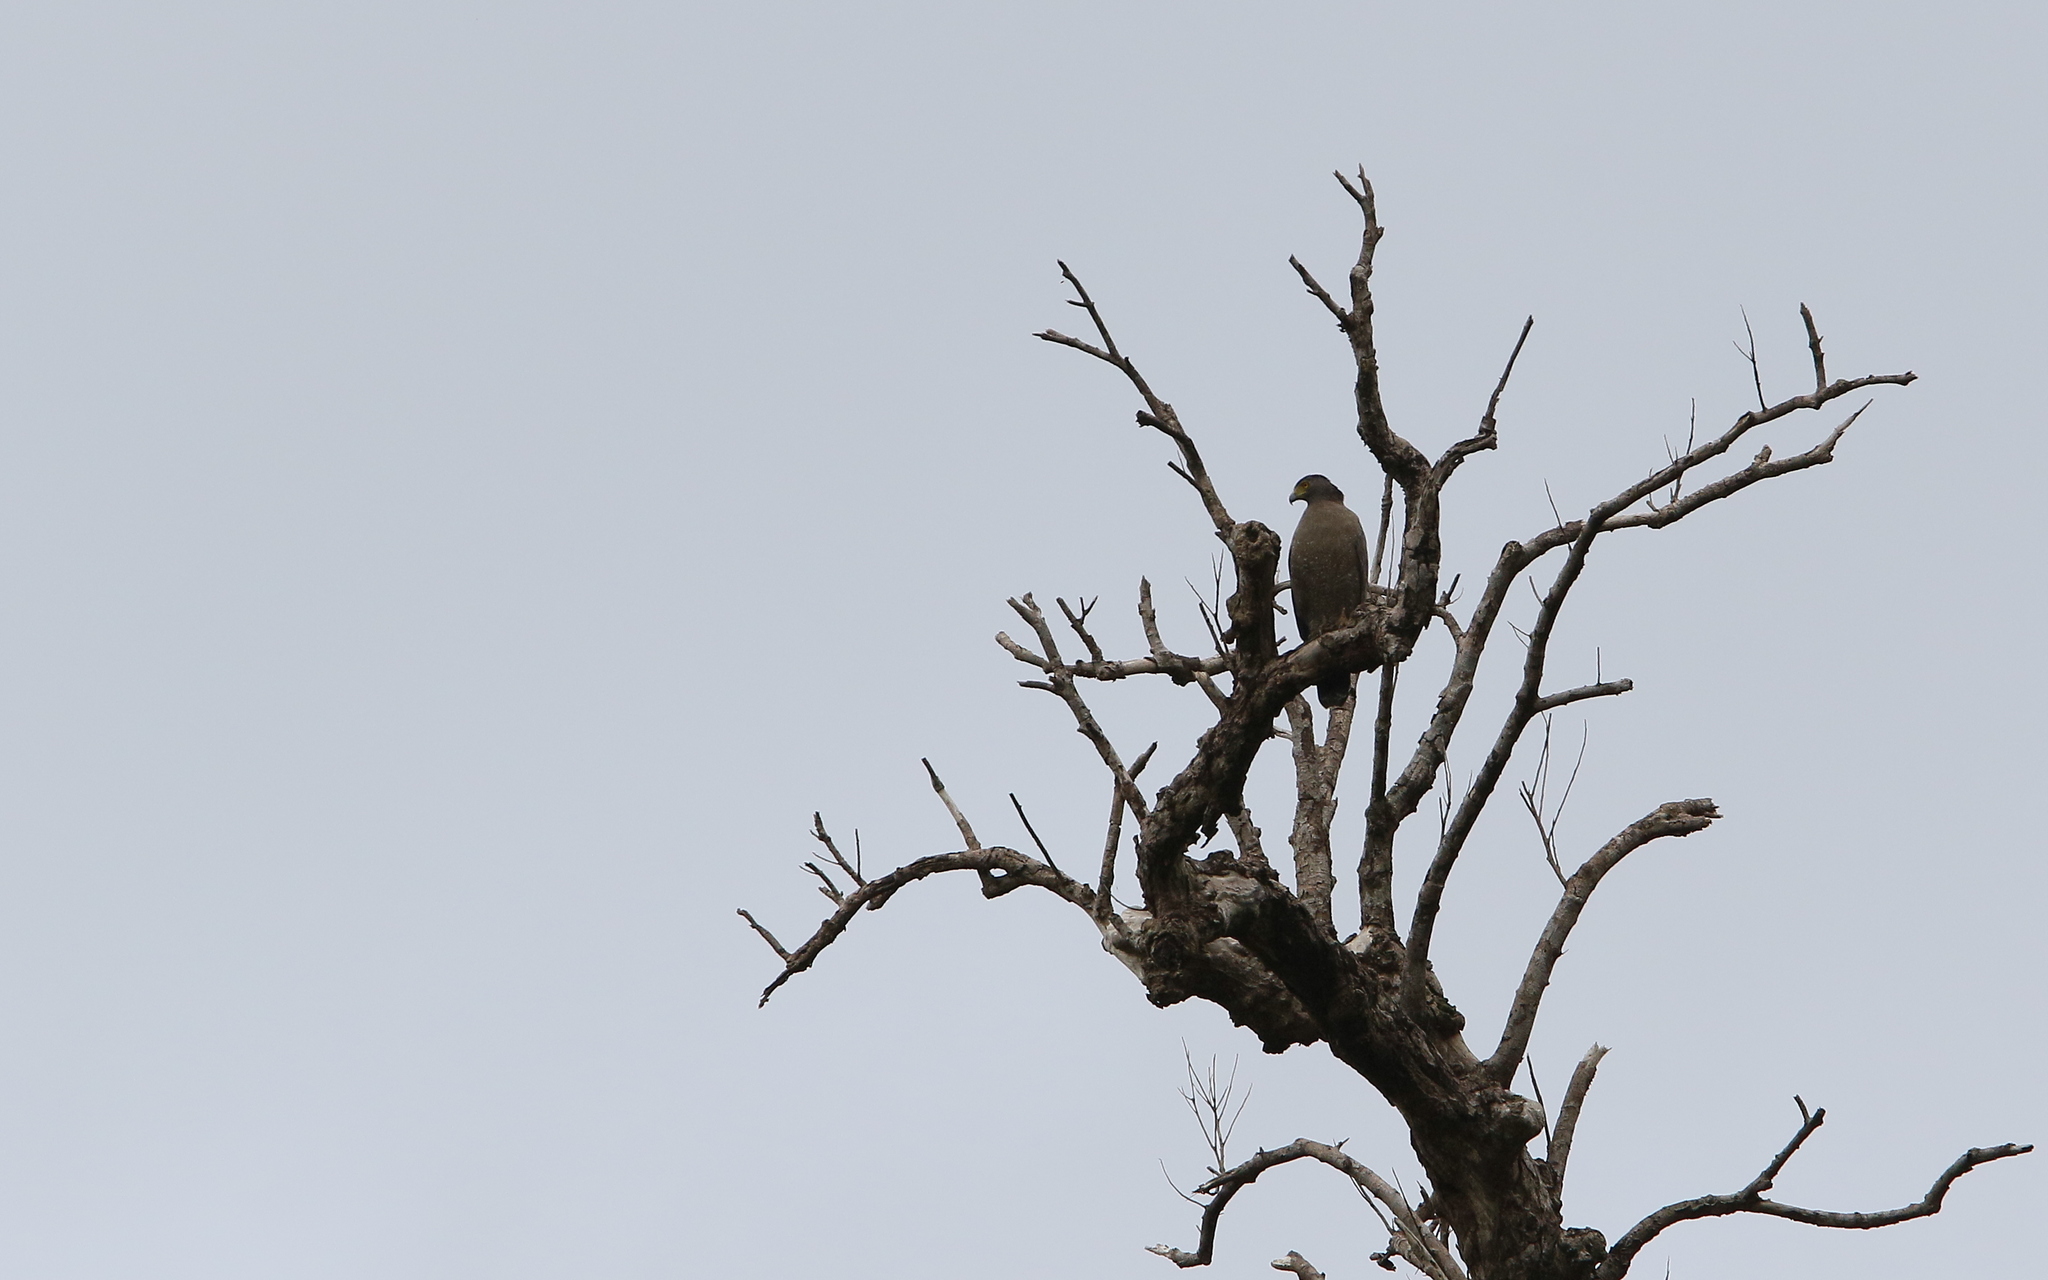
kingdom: Animalia
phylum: Chordata
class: Aves
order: Accipitriformes
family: Accipitridae
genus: Spilornis
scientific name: Spilornis cheela
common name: Crested serpent eagle
